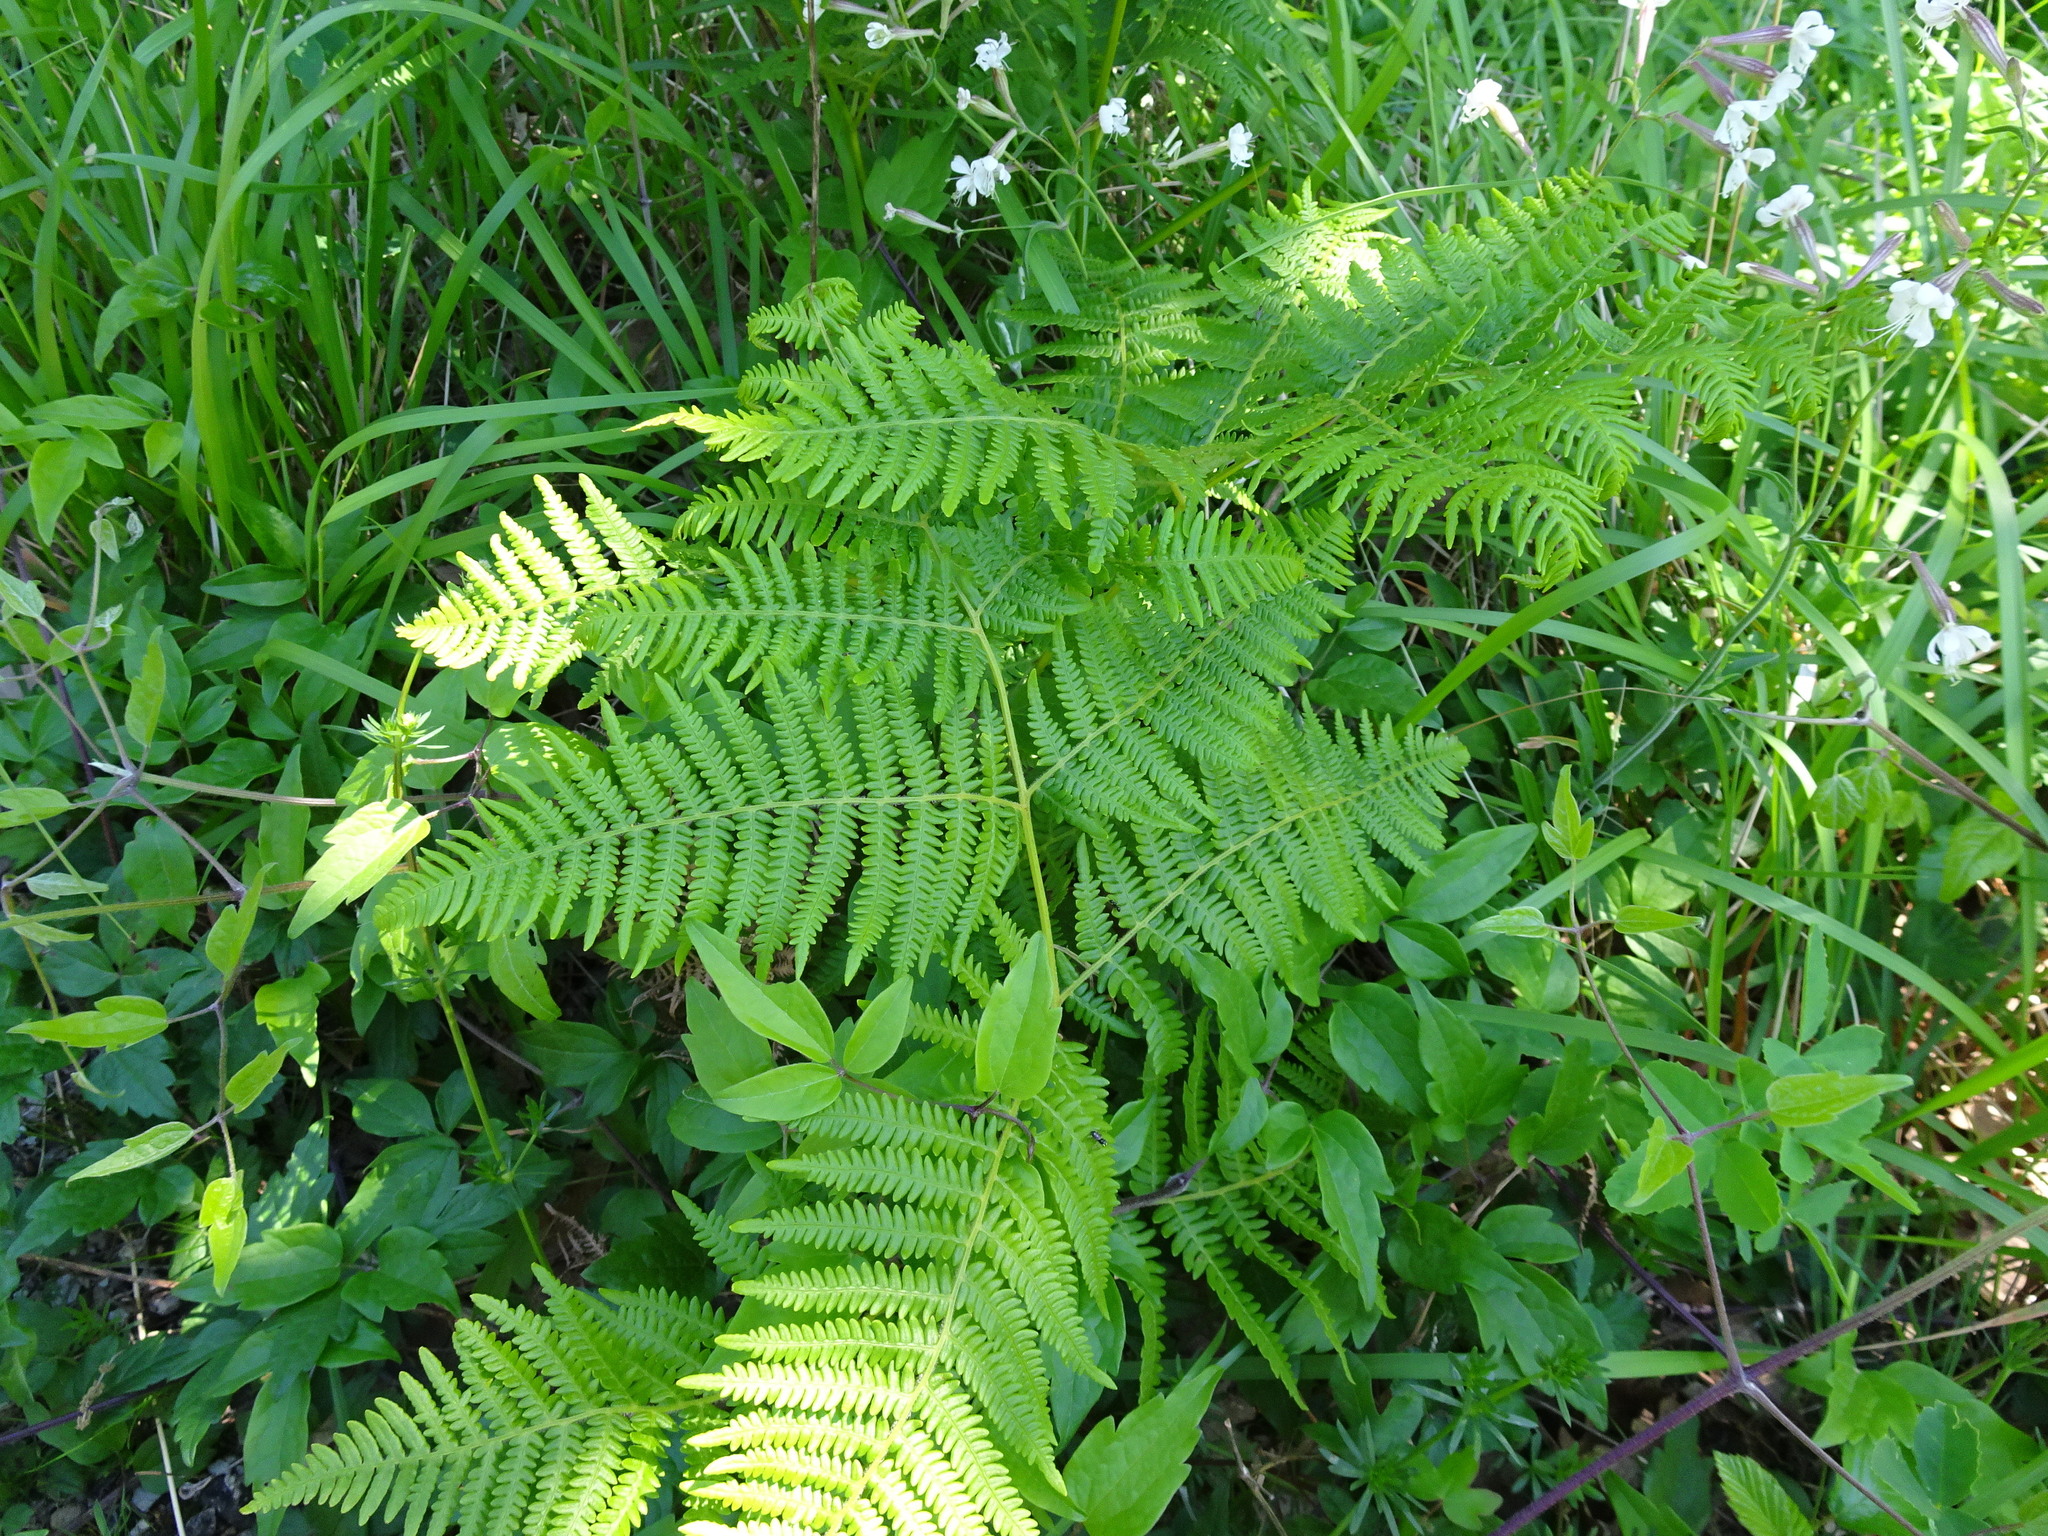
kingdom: Plantae
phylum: Tracheophyta
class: Polypodiopsida
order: Polypodiales
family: Dennstaedtiaceae
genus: Pteridium
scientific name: Pteridium aquilinum
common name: Bracken
